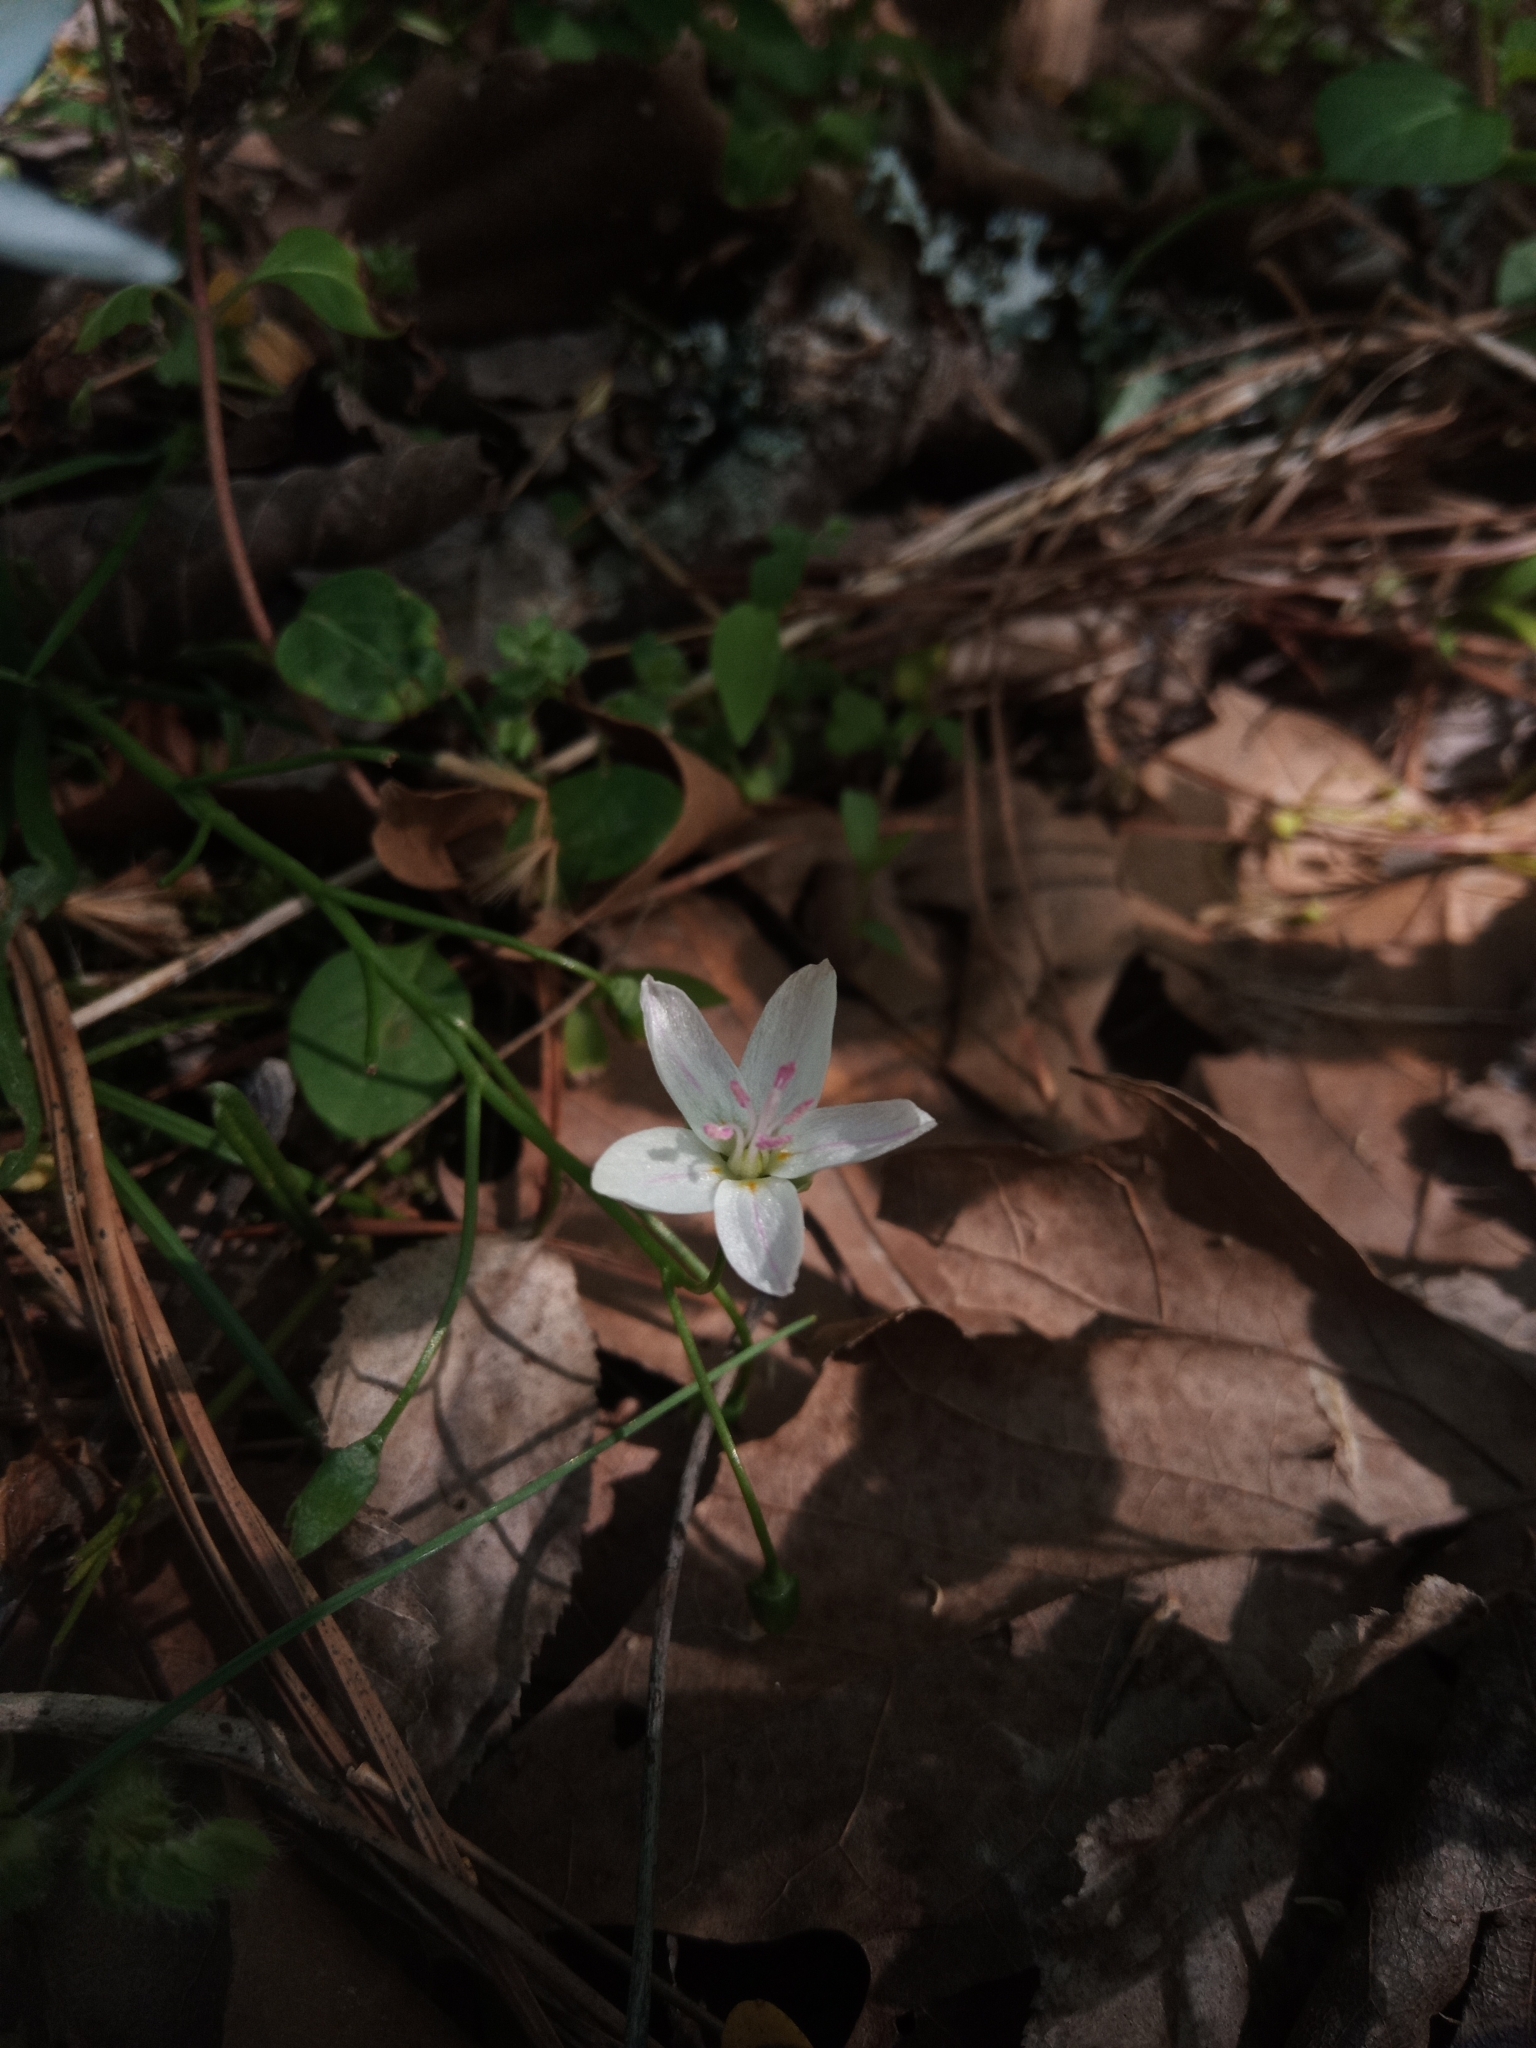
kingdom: Plantae
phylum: Tracheophyta
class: Magnoliopsida
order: Caryophyllales
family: Montiaceae
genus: Claytonia
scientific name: Claytonia virginica
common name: Virginia springbeauty
